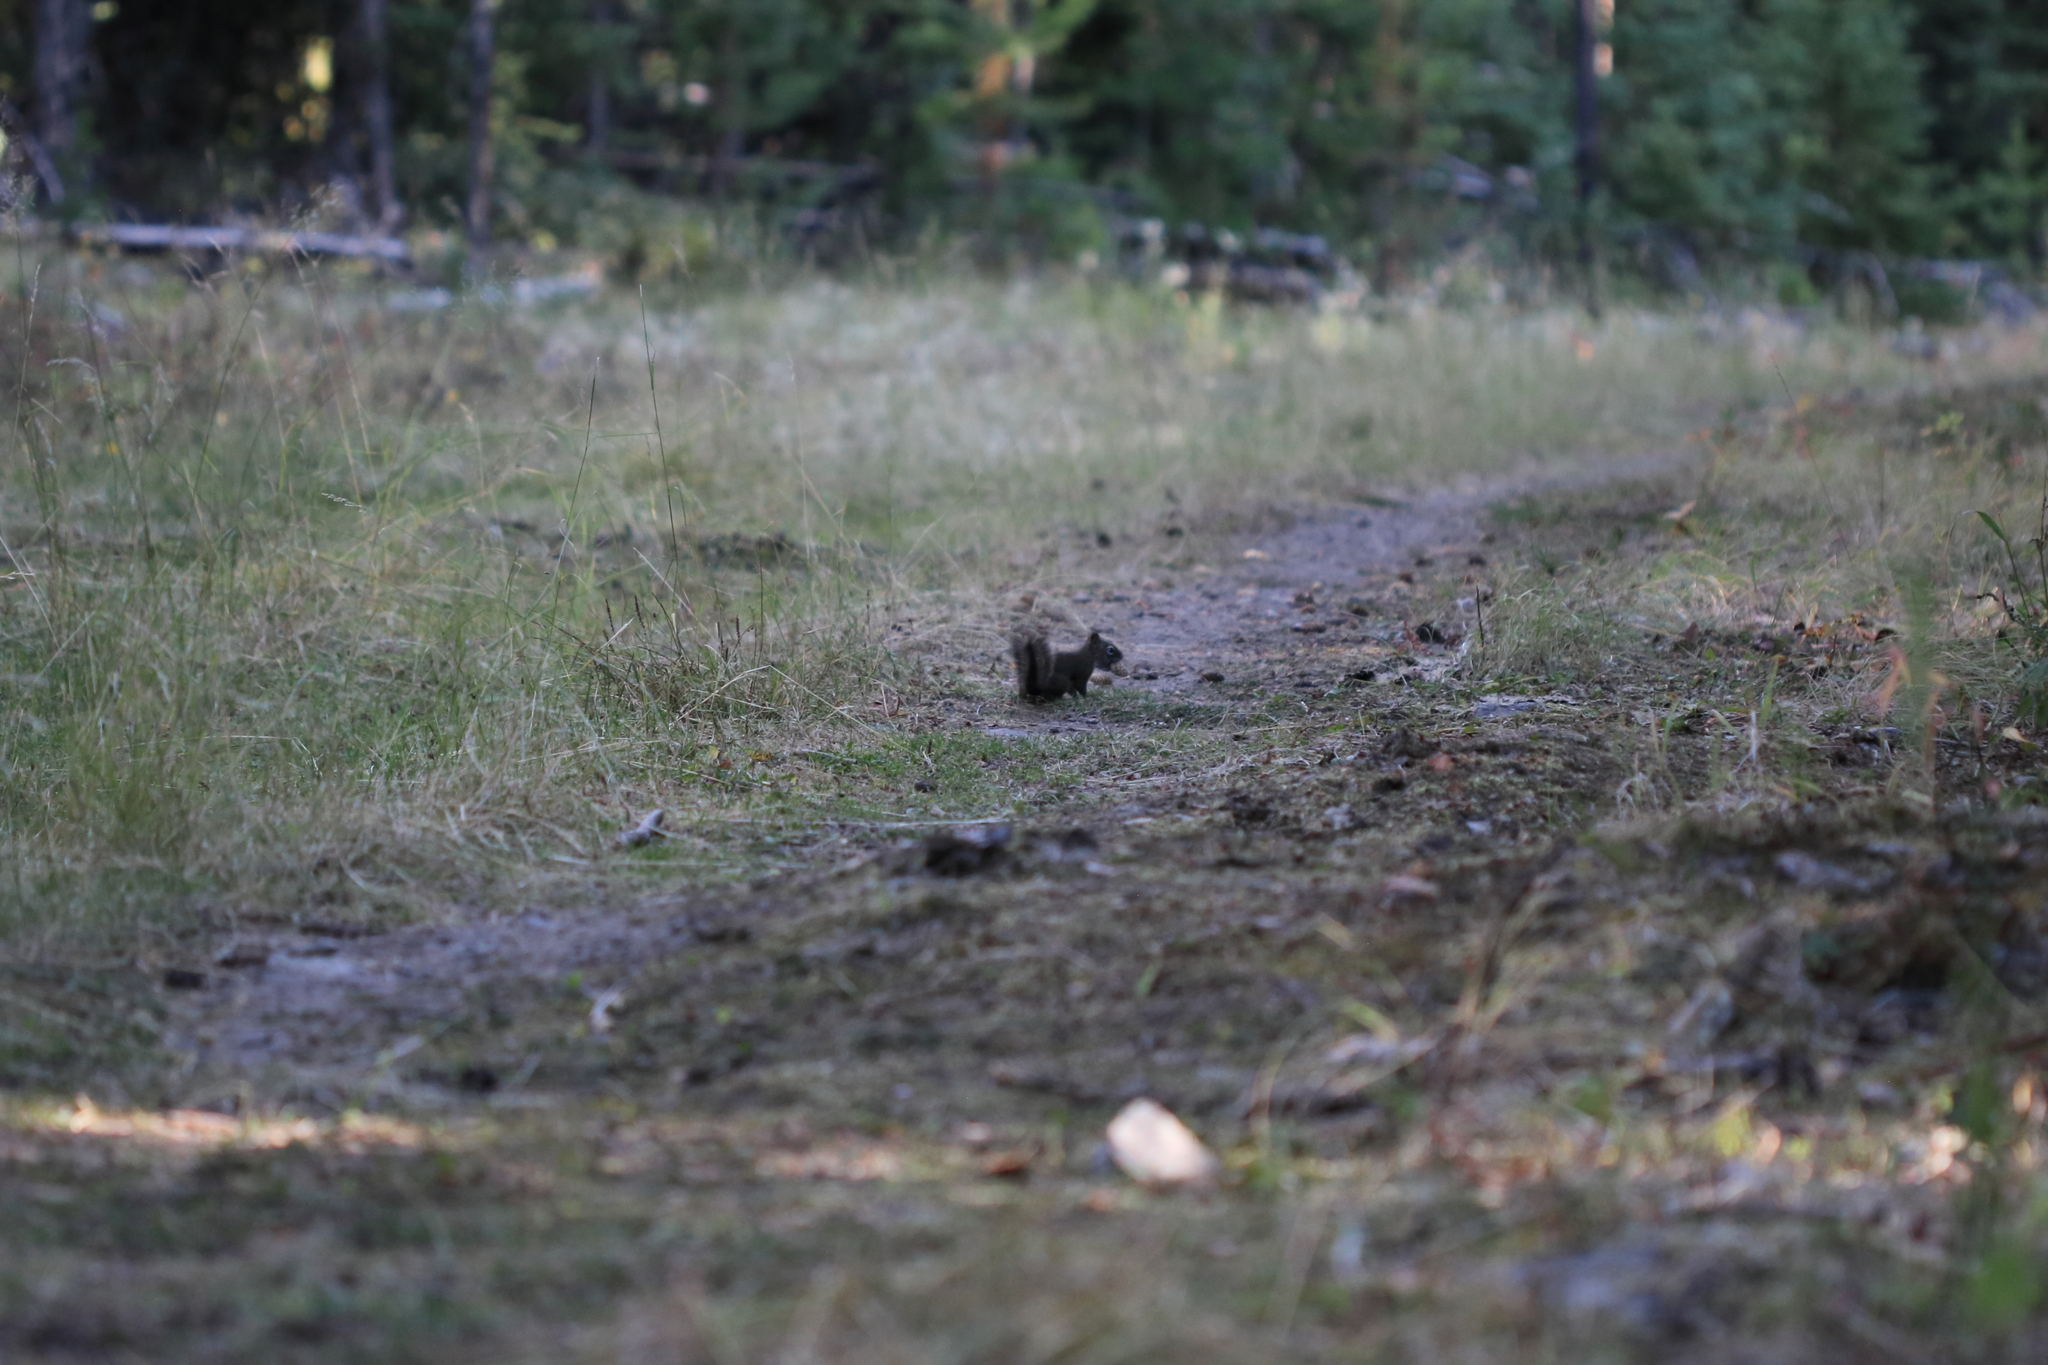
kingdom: Animalia
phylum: Chordata
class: Mammalia
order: Rodentia
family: Sciuridae
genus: Tamiasciurus
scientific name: Tamiasciurus hudsonicus
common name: Red squirrel
